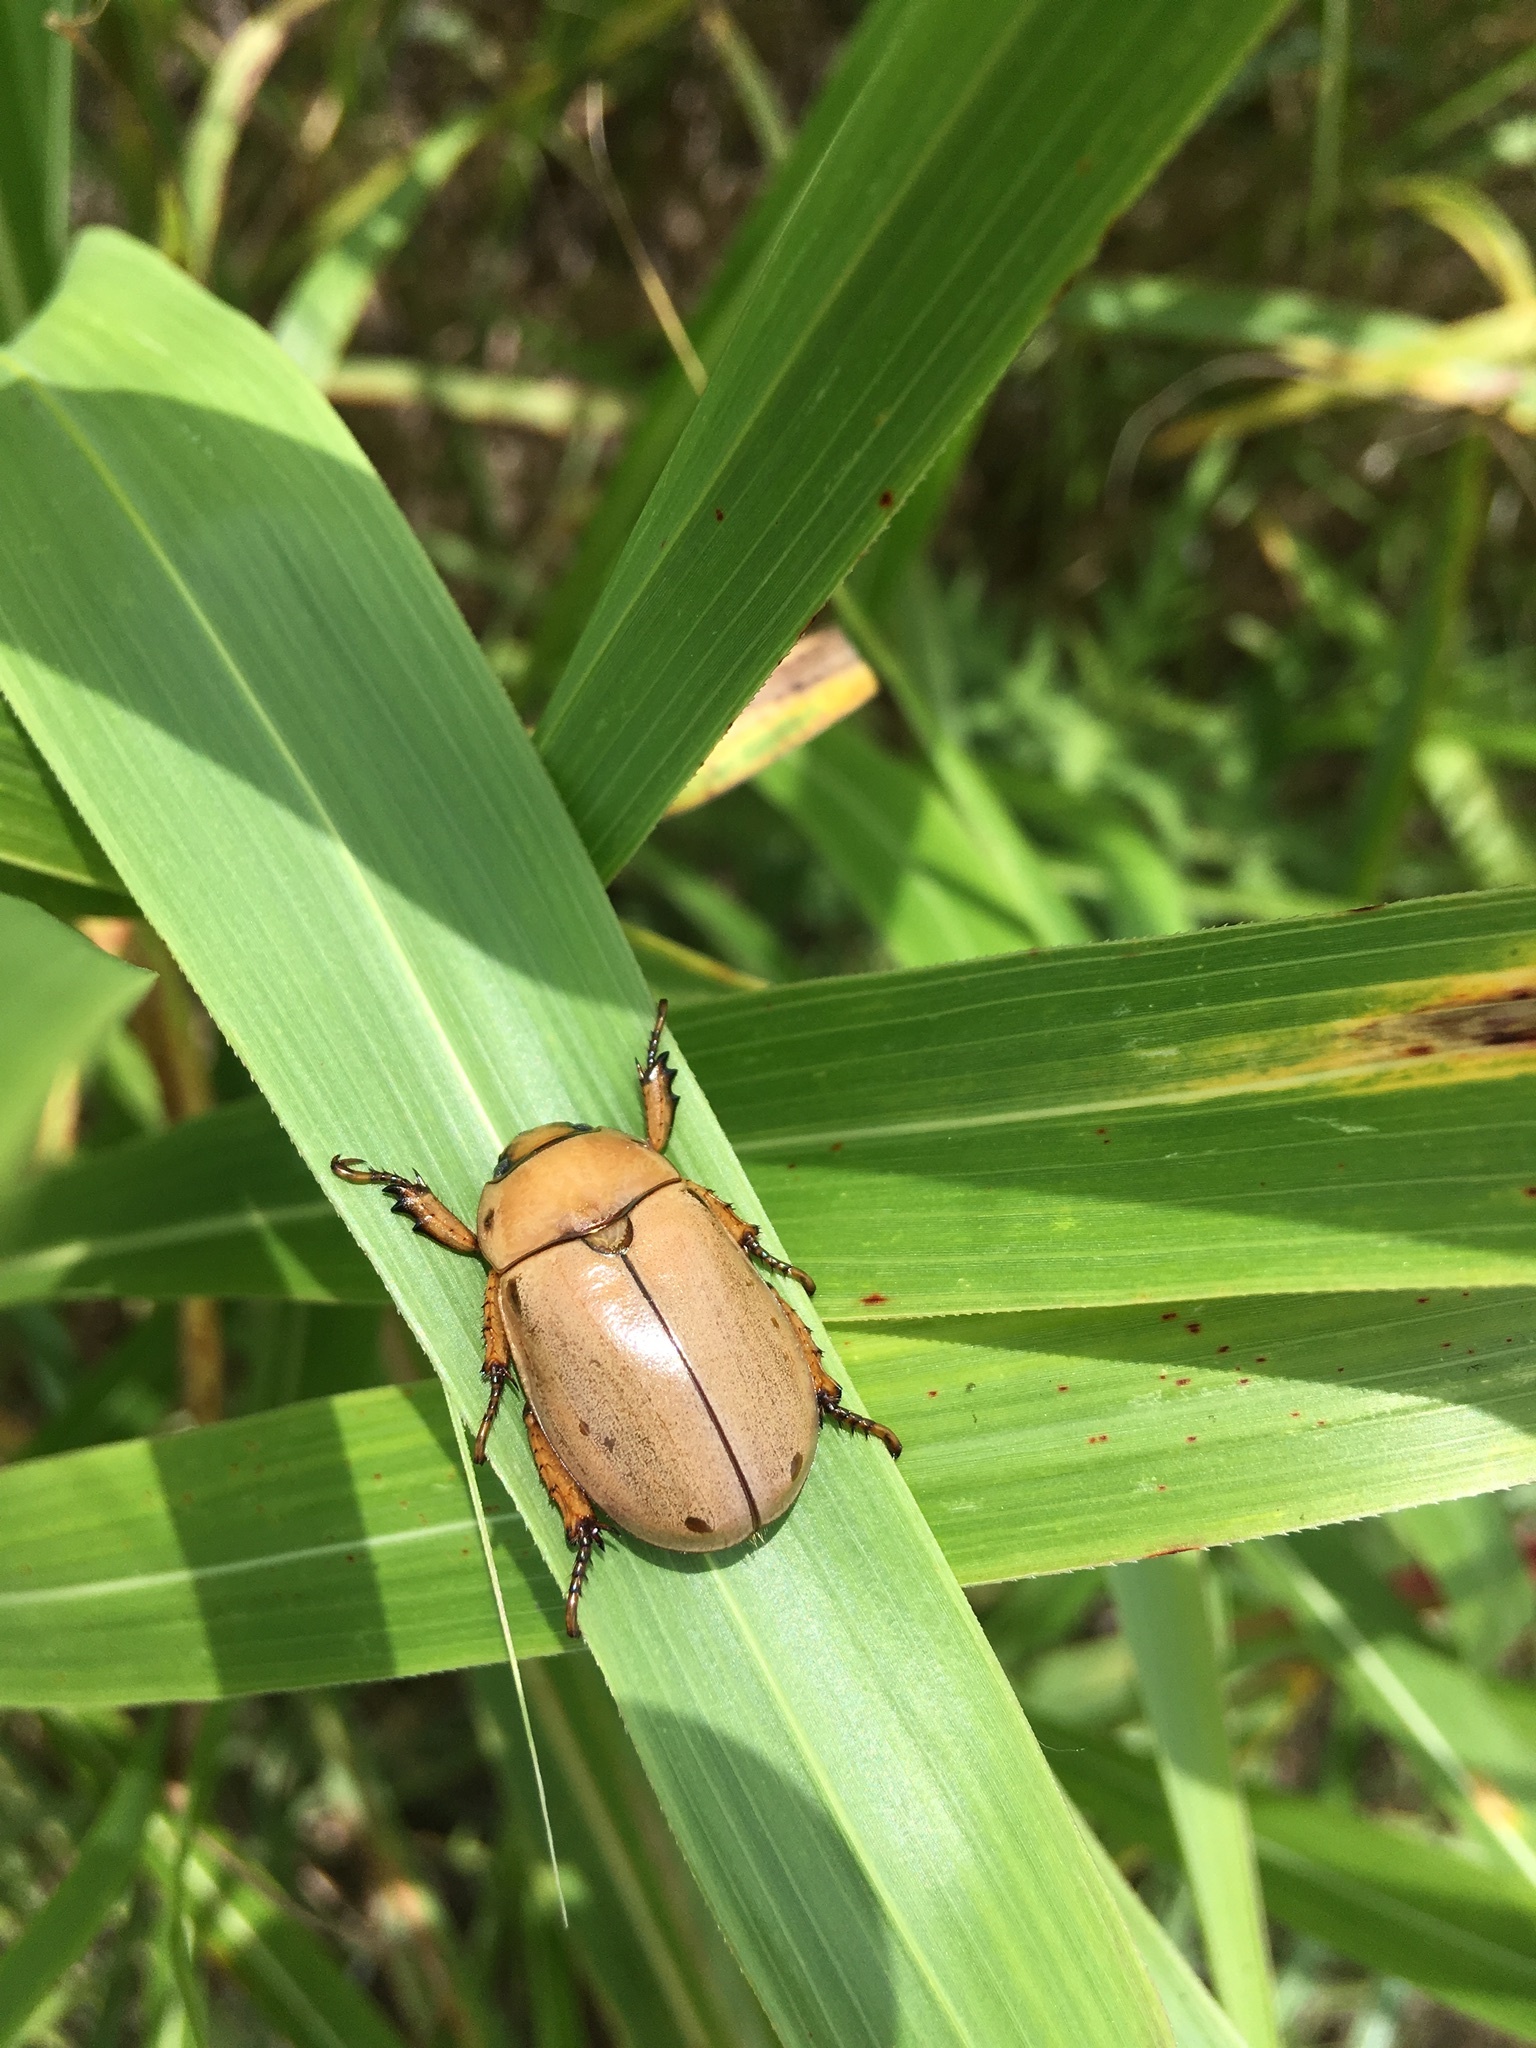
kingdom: Animalia
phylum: Arthropoda
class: Insecta
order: Coleoptera
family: Scarabaeidae
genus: Pelidnota
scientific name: Pelidnota punctata
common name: Grapevine beetle
